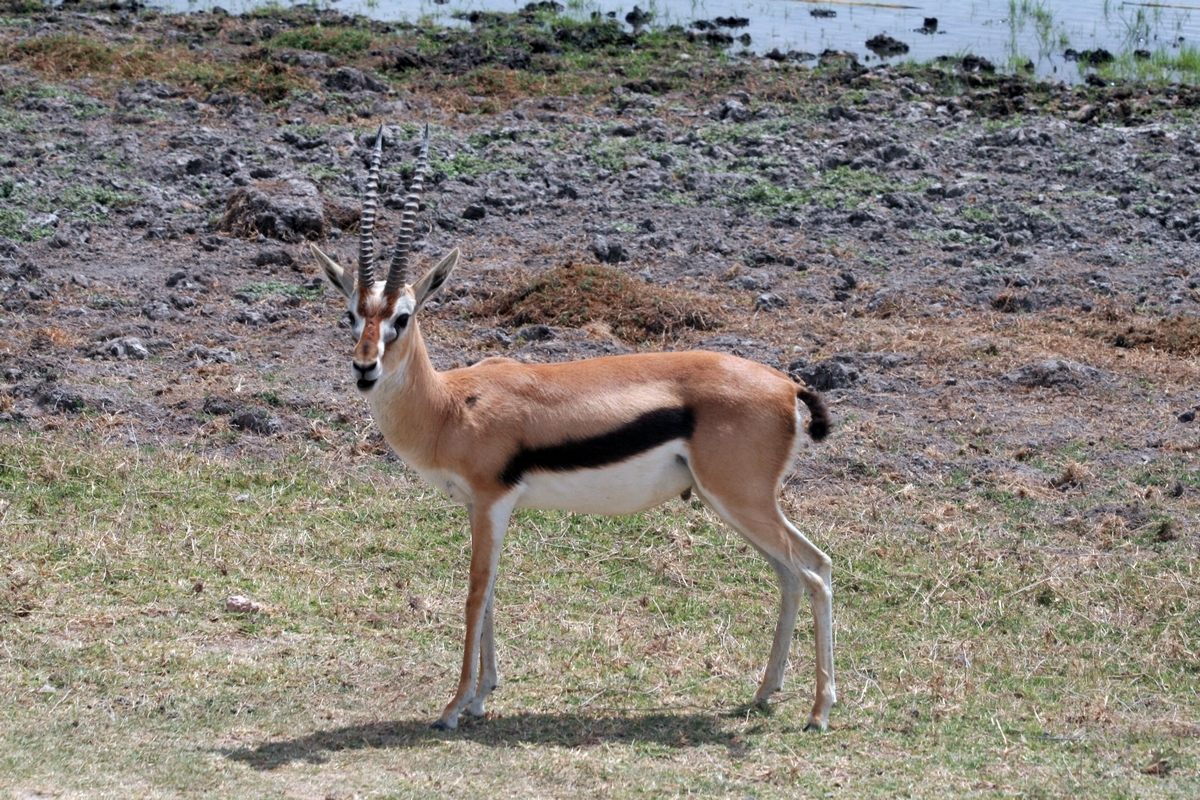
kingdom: Animalia
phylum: Chordata
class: Mammalia
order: Artiodactyla
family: Bovidae
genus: Eudorcas
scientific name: Eudorcas thomsonii
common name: Thomson's gazelle
